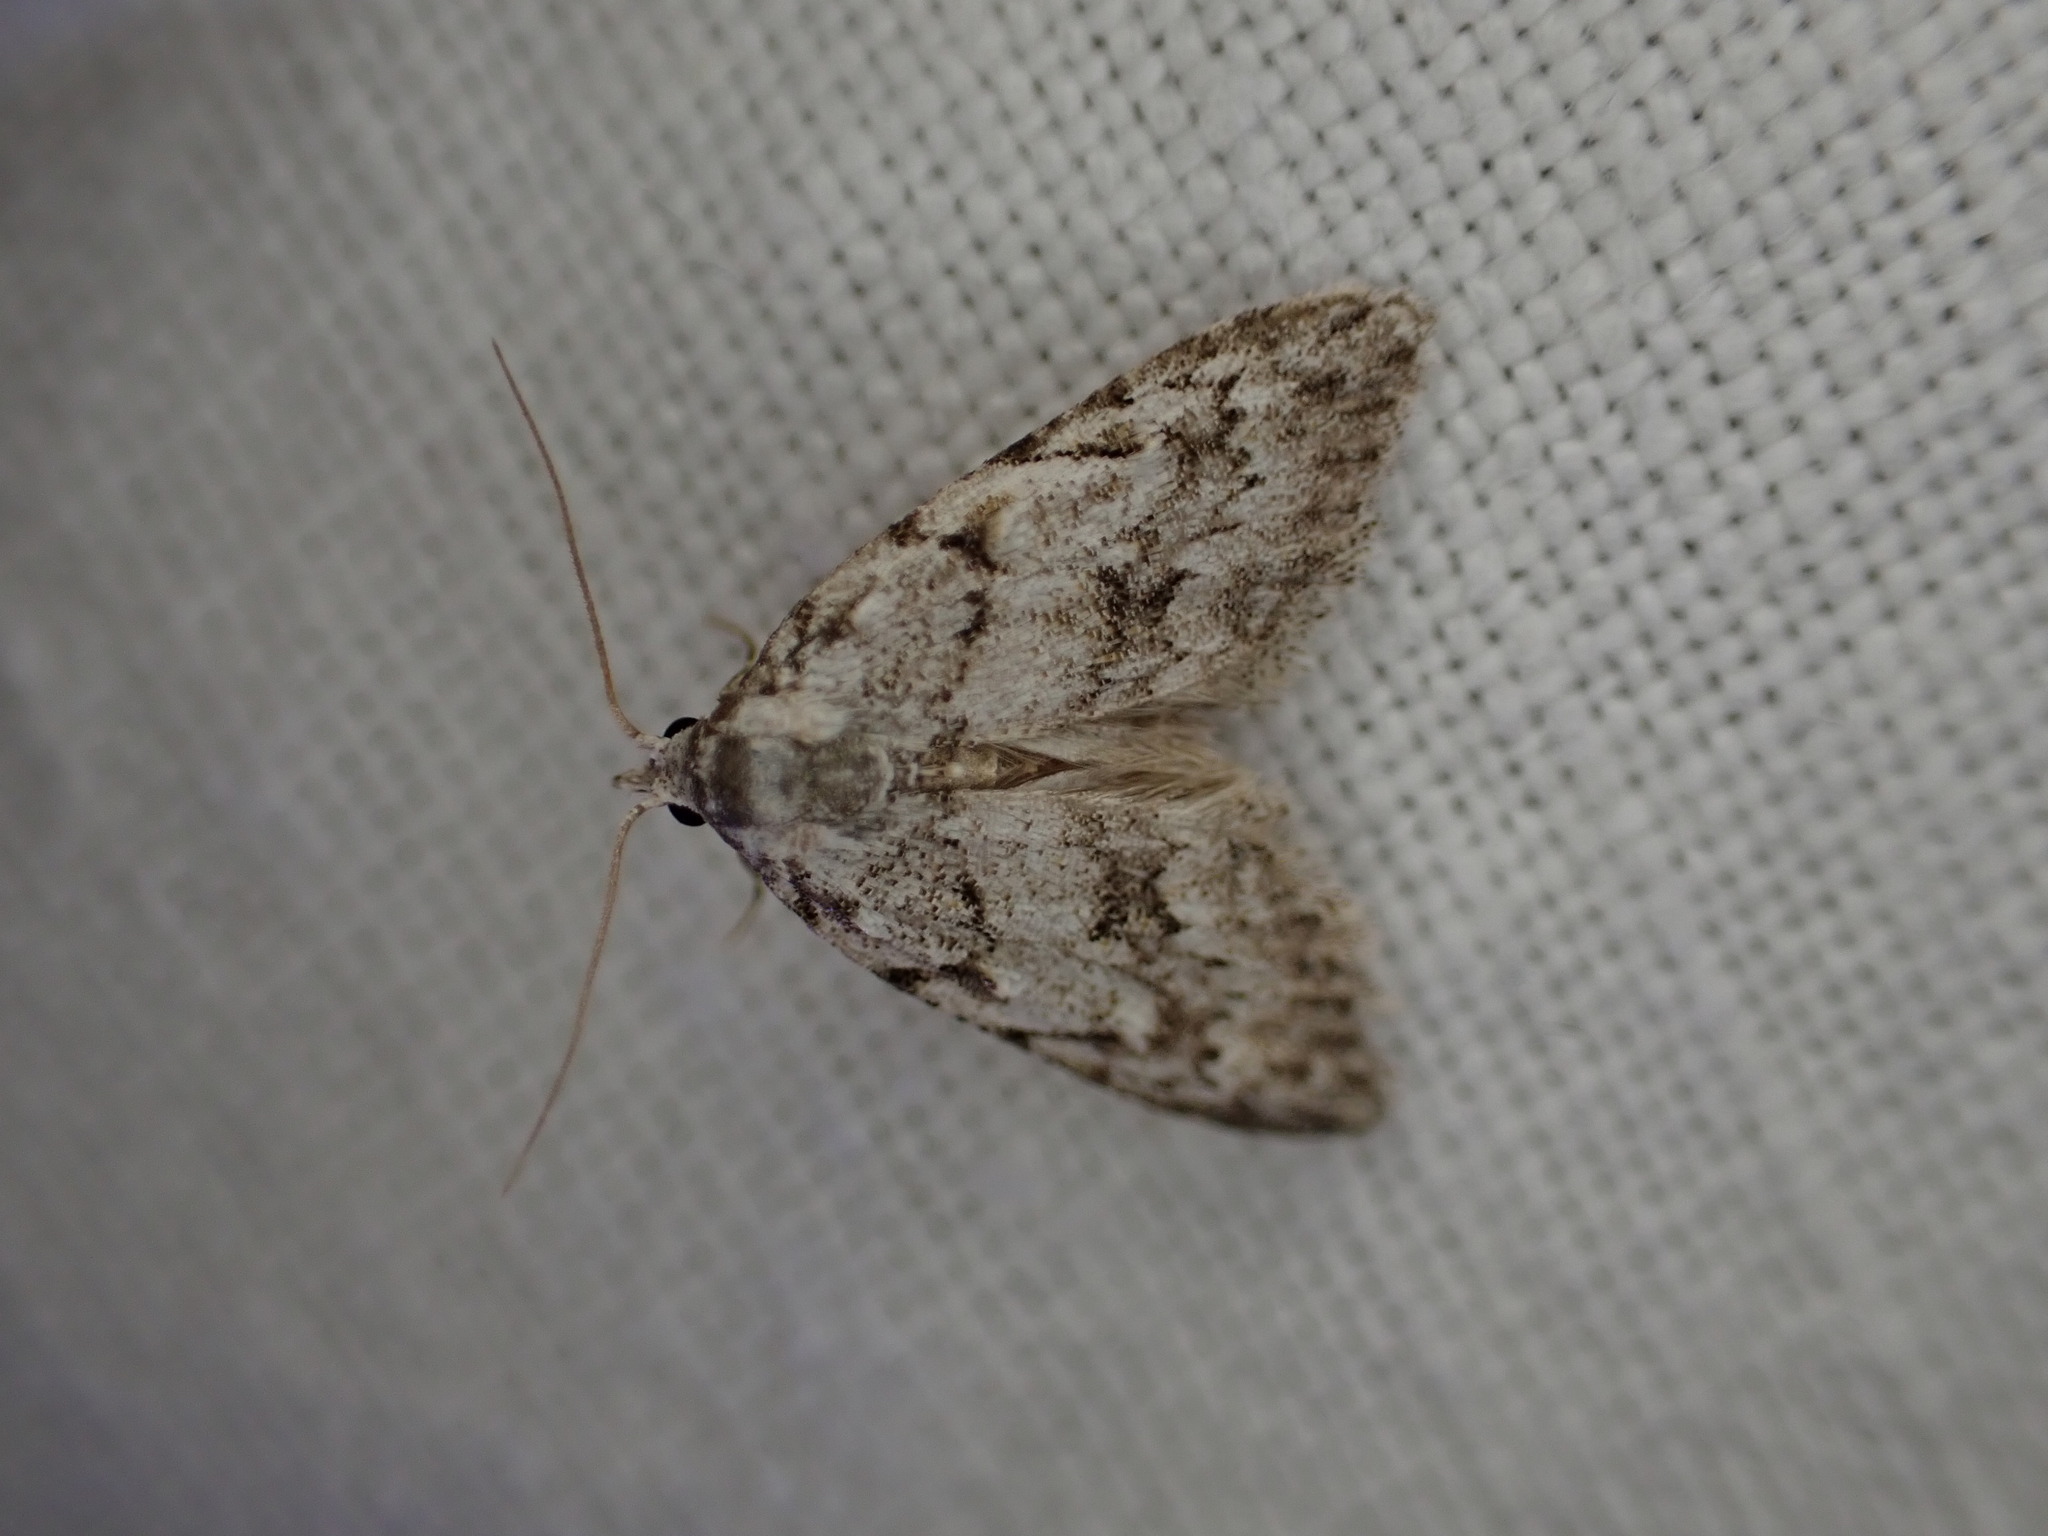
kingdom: Animalia
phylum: Arthropoda
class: Insecta
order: Lepidoptera
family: Nolidae
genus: Nola
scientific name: Nola cicatricalis
